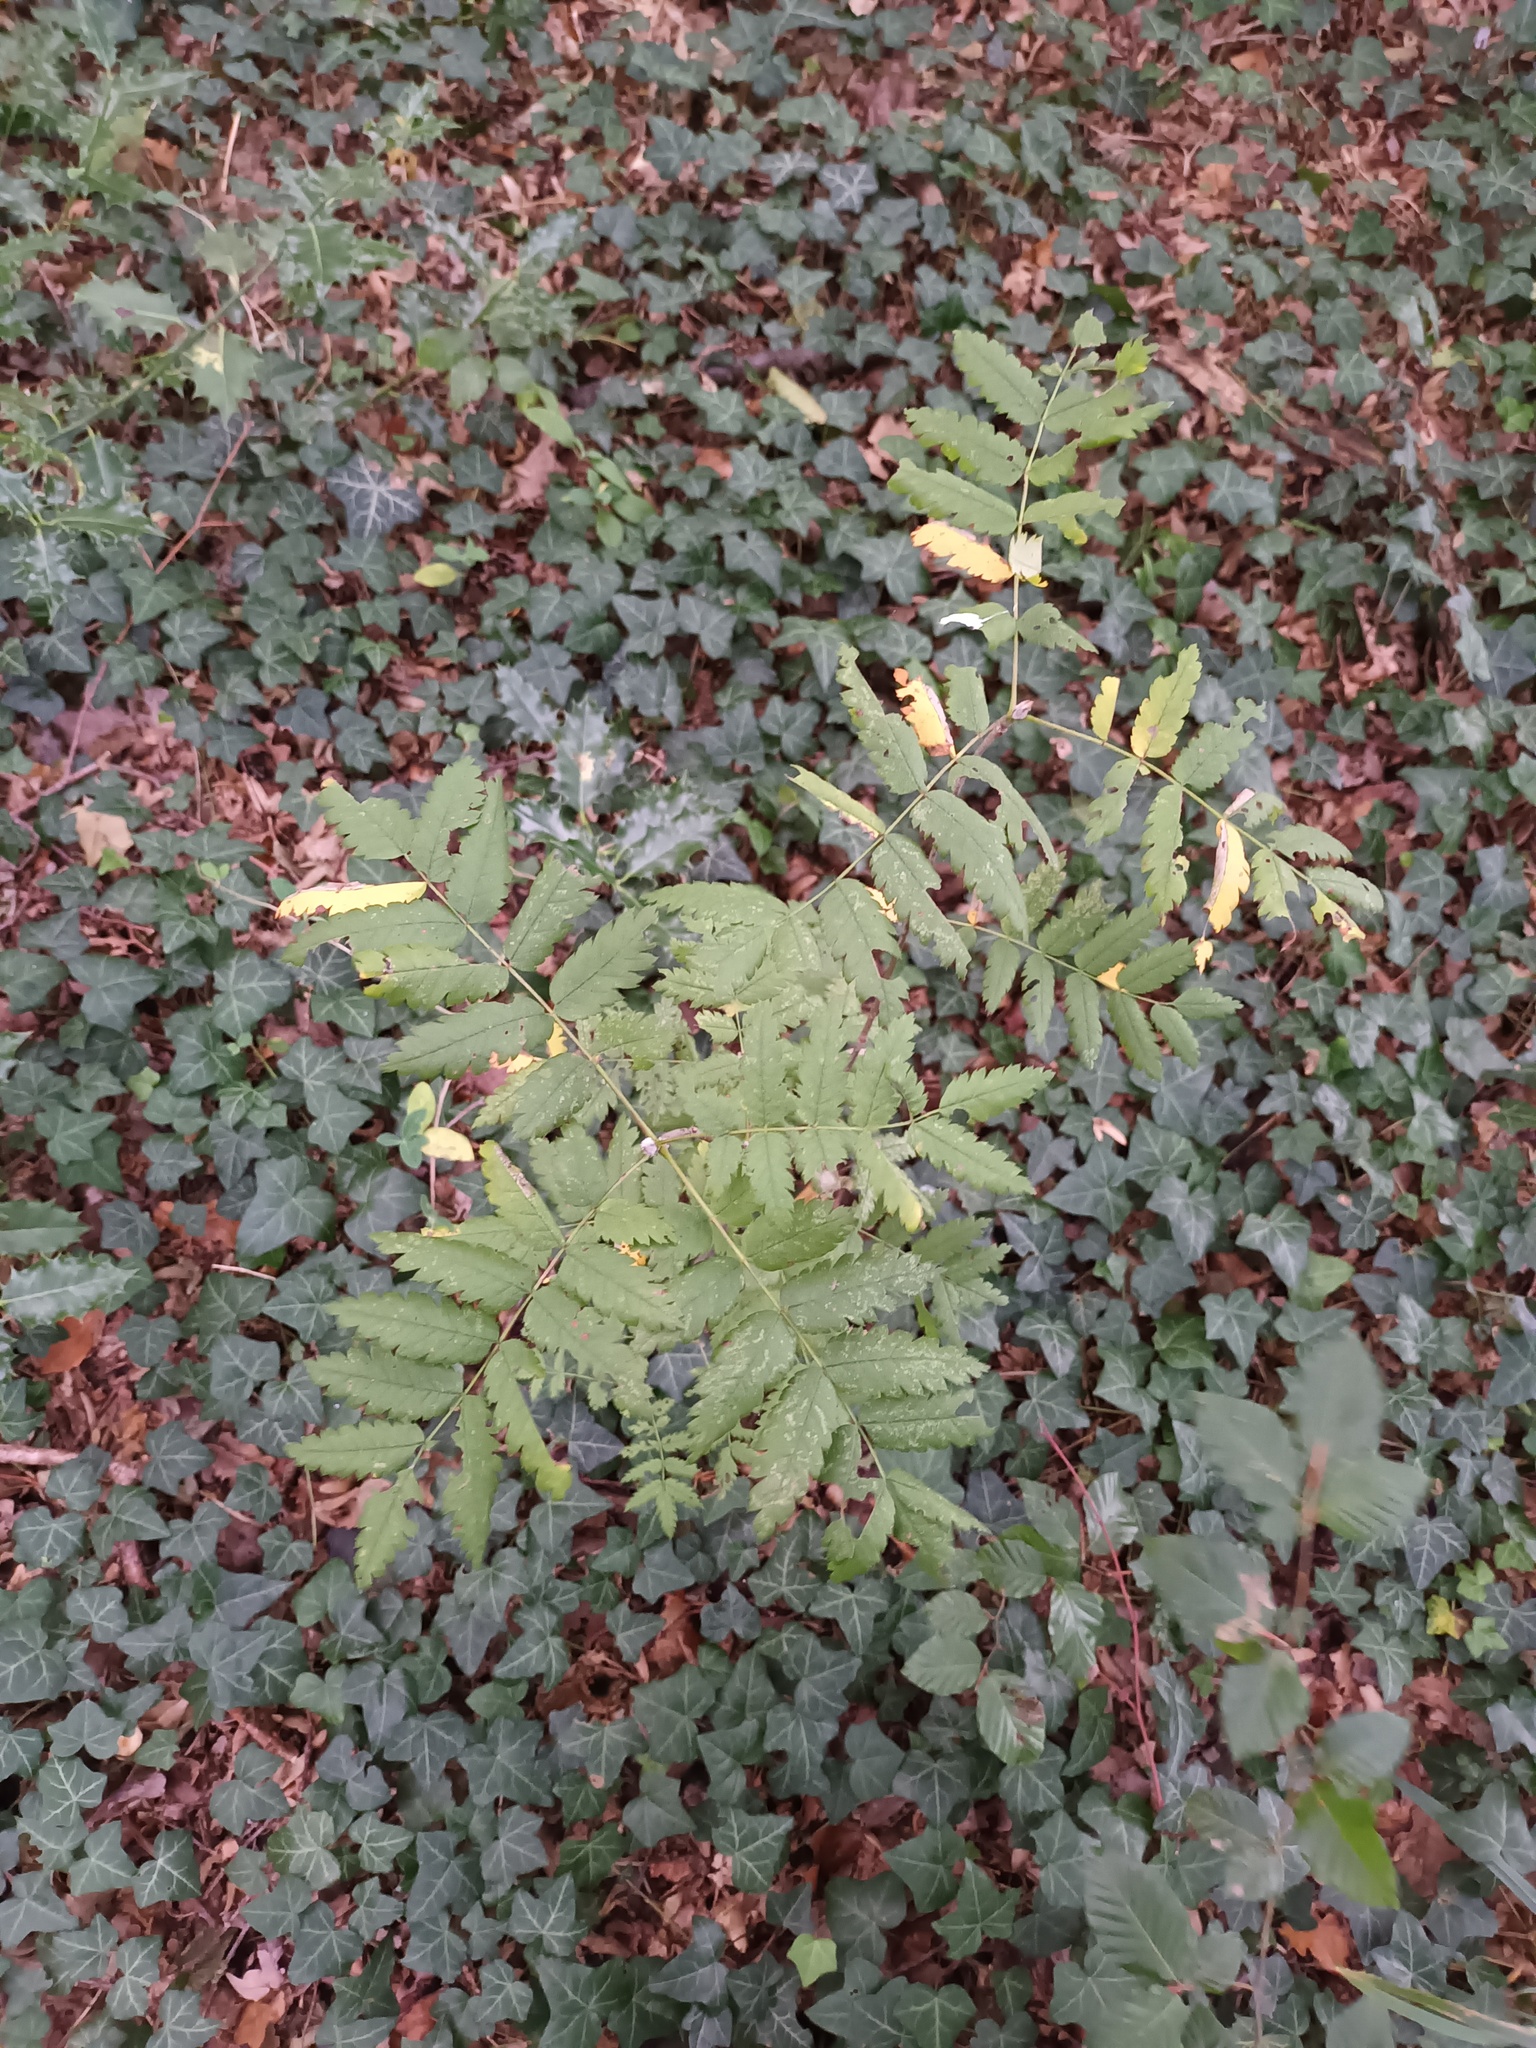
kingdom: Plantae
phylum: Tracheophyta
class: Magnoliopsida
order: Rosales
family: Rosaceae
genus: Sorbus
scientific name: Sorbus aucuparia
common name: Rowan
